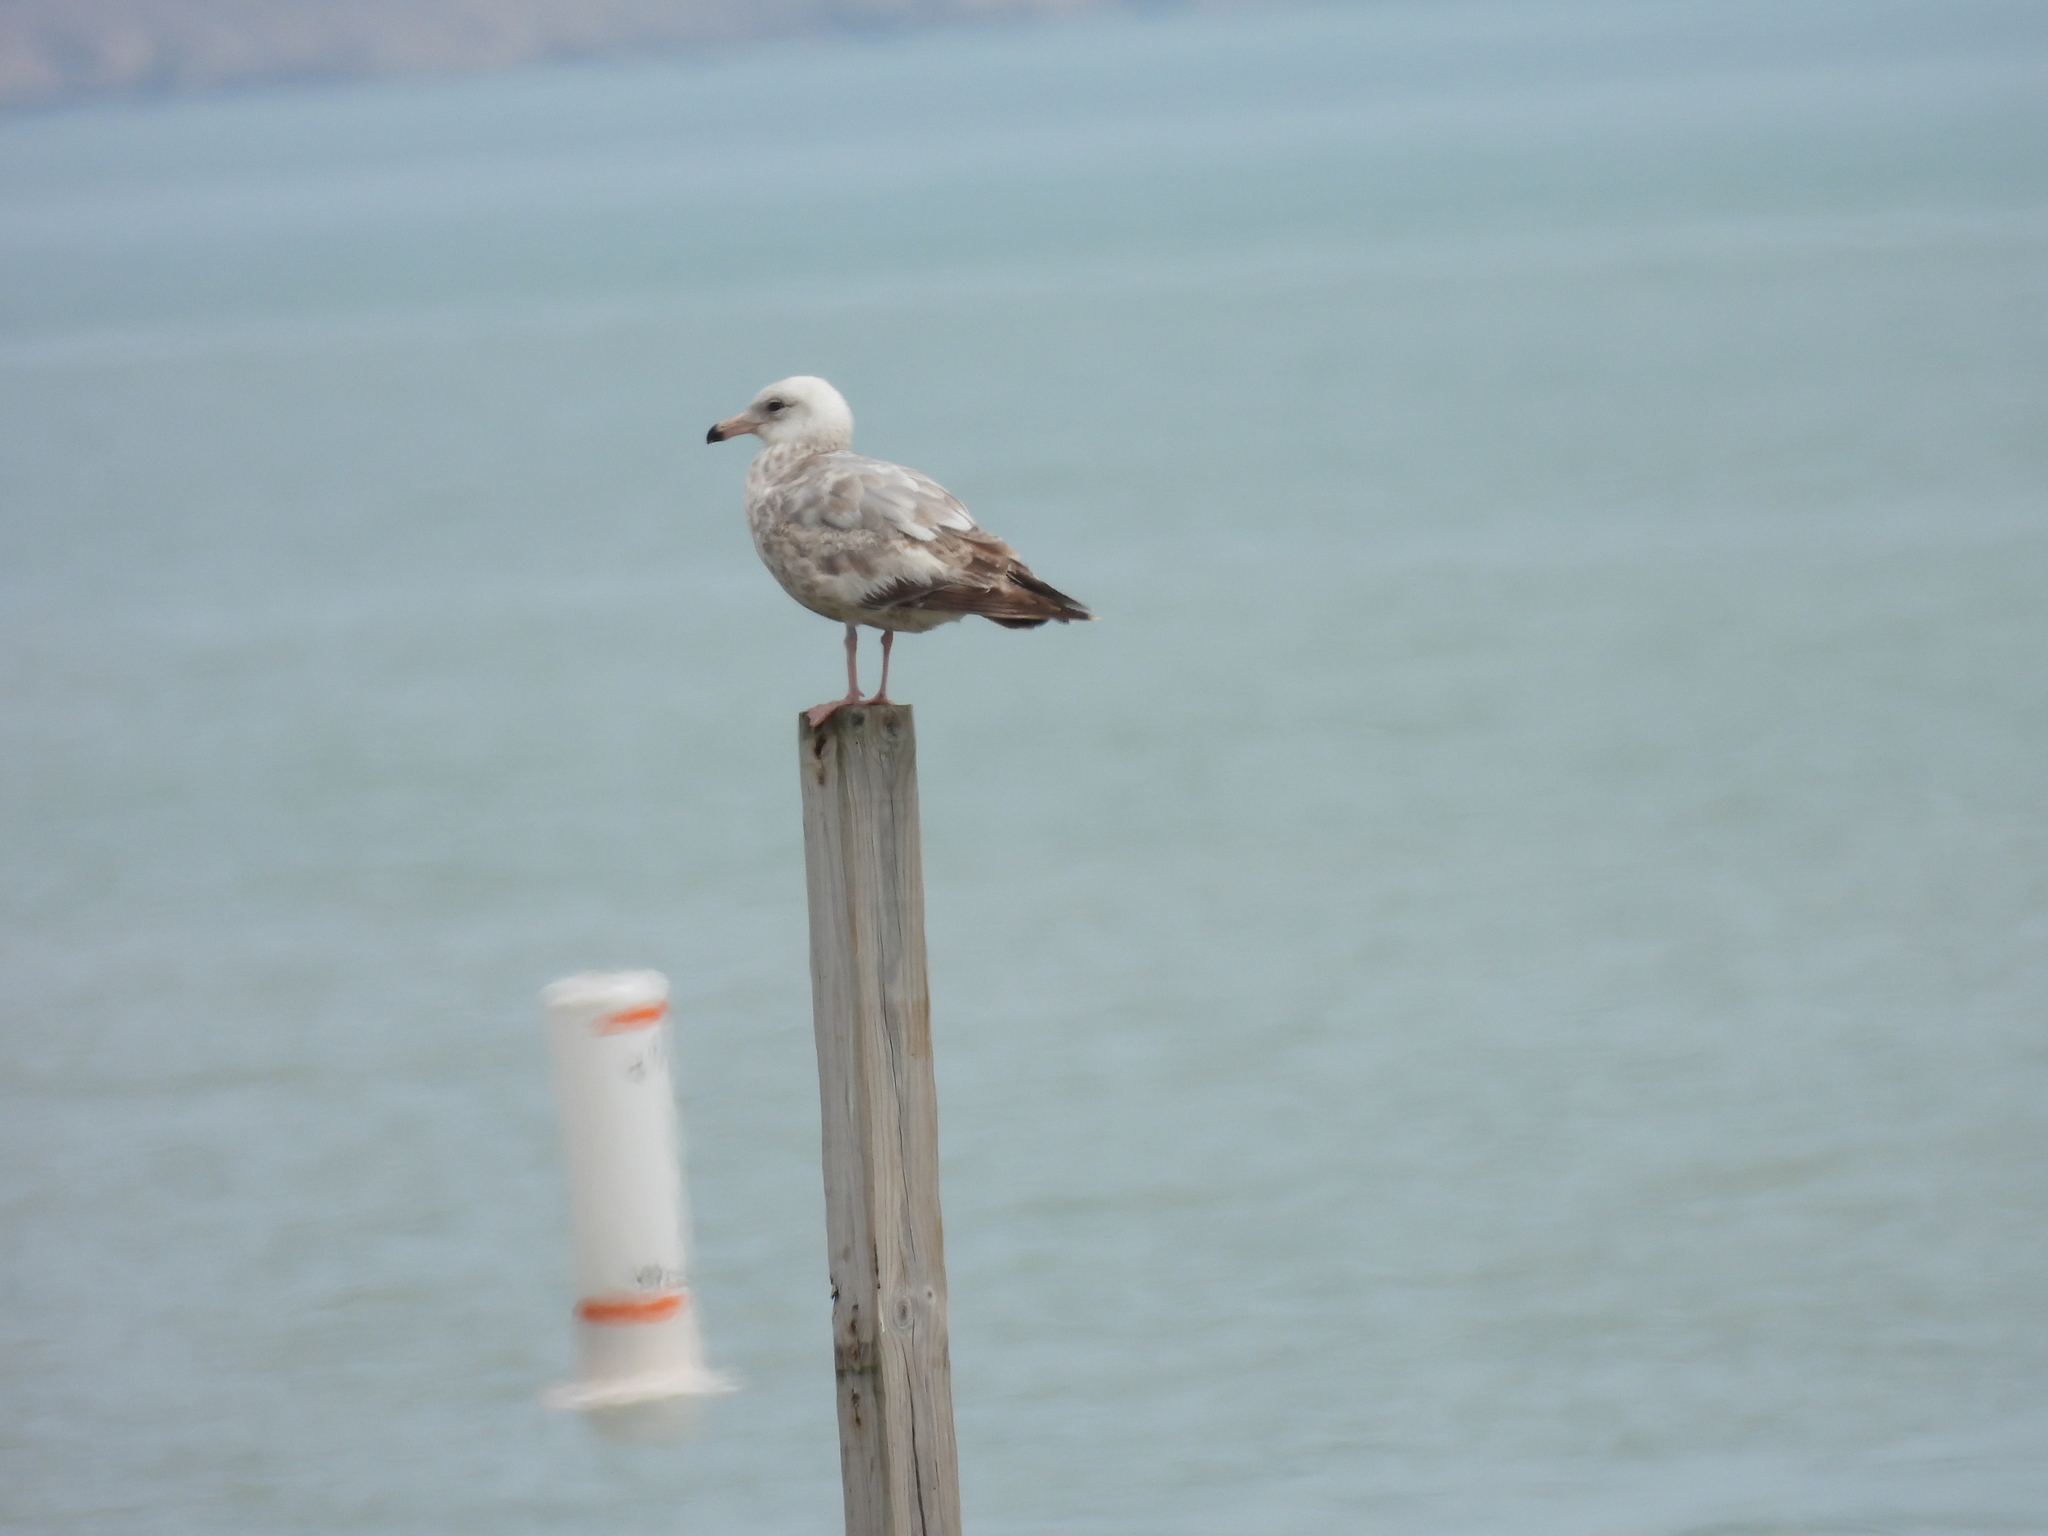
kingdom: Animalia
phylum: Chordata
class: Aves
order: Charadriiformes
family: Laridae
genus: Larus
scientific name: Larus argentatus
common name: Herring gull
